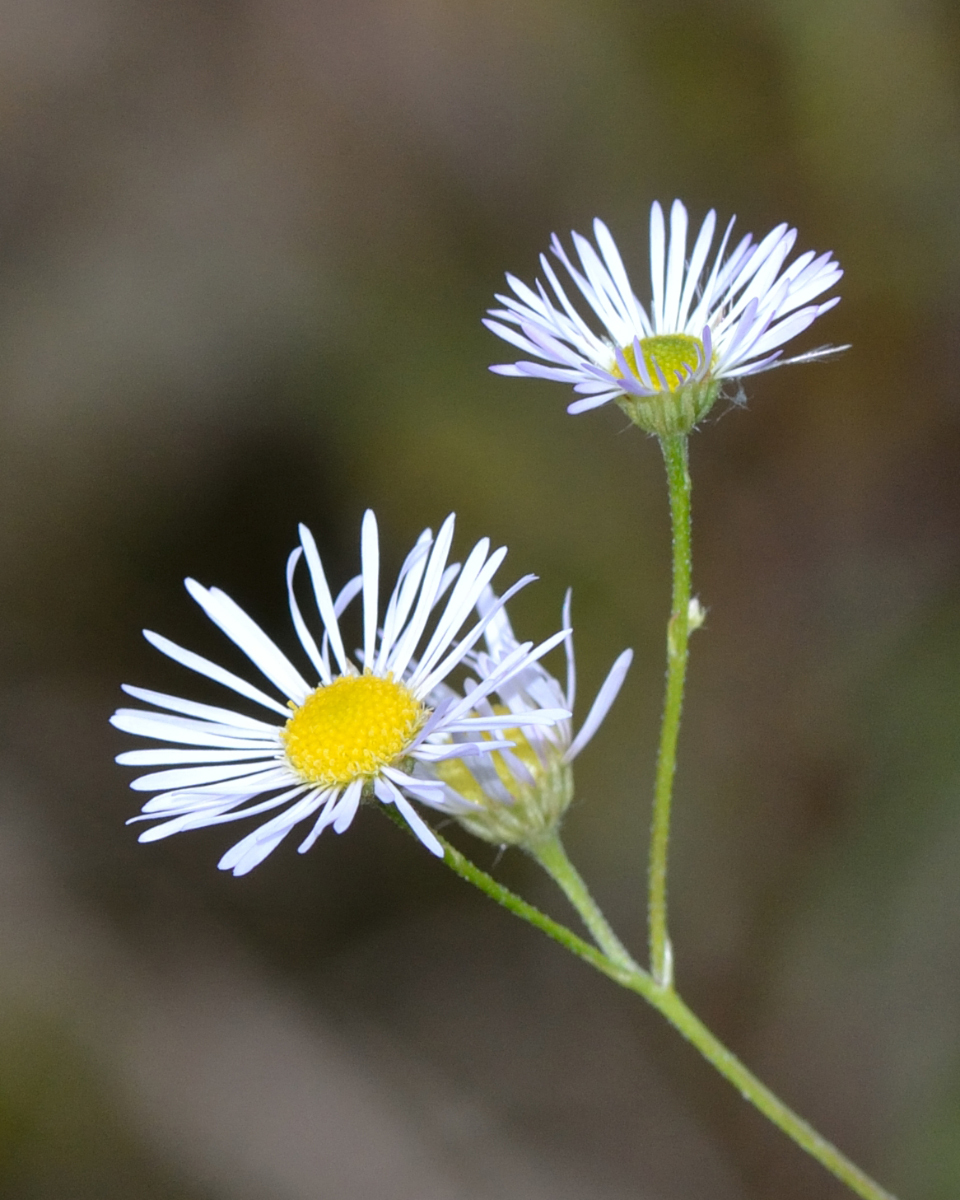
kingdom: Plantae
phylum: Tracheophyta
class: Magnoliopsida
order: Asterales
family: Asteraceae
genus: Erigeron
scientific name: Erigeron annuus
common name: Tall fleabane
